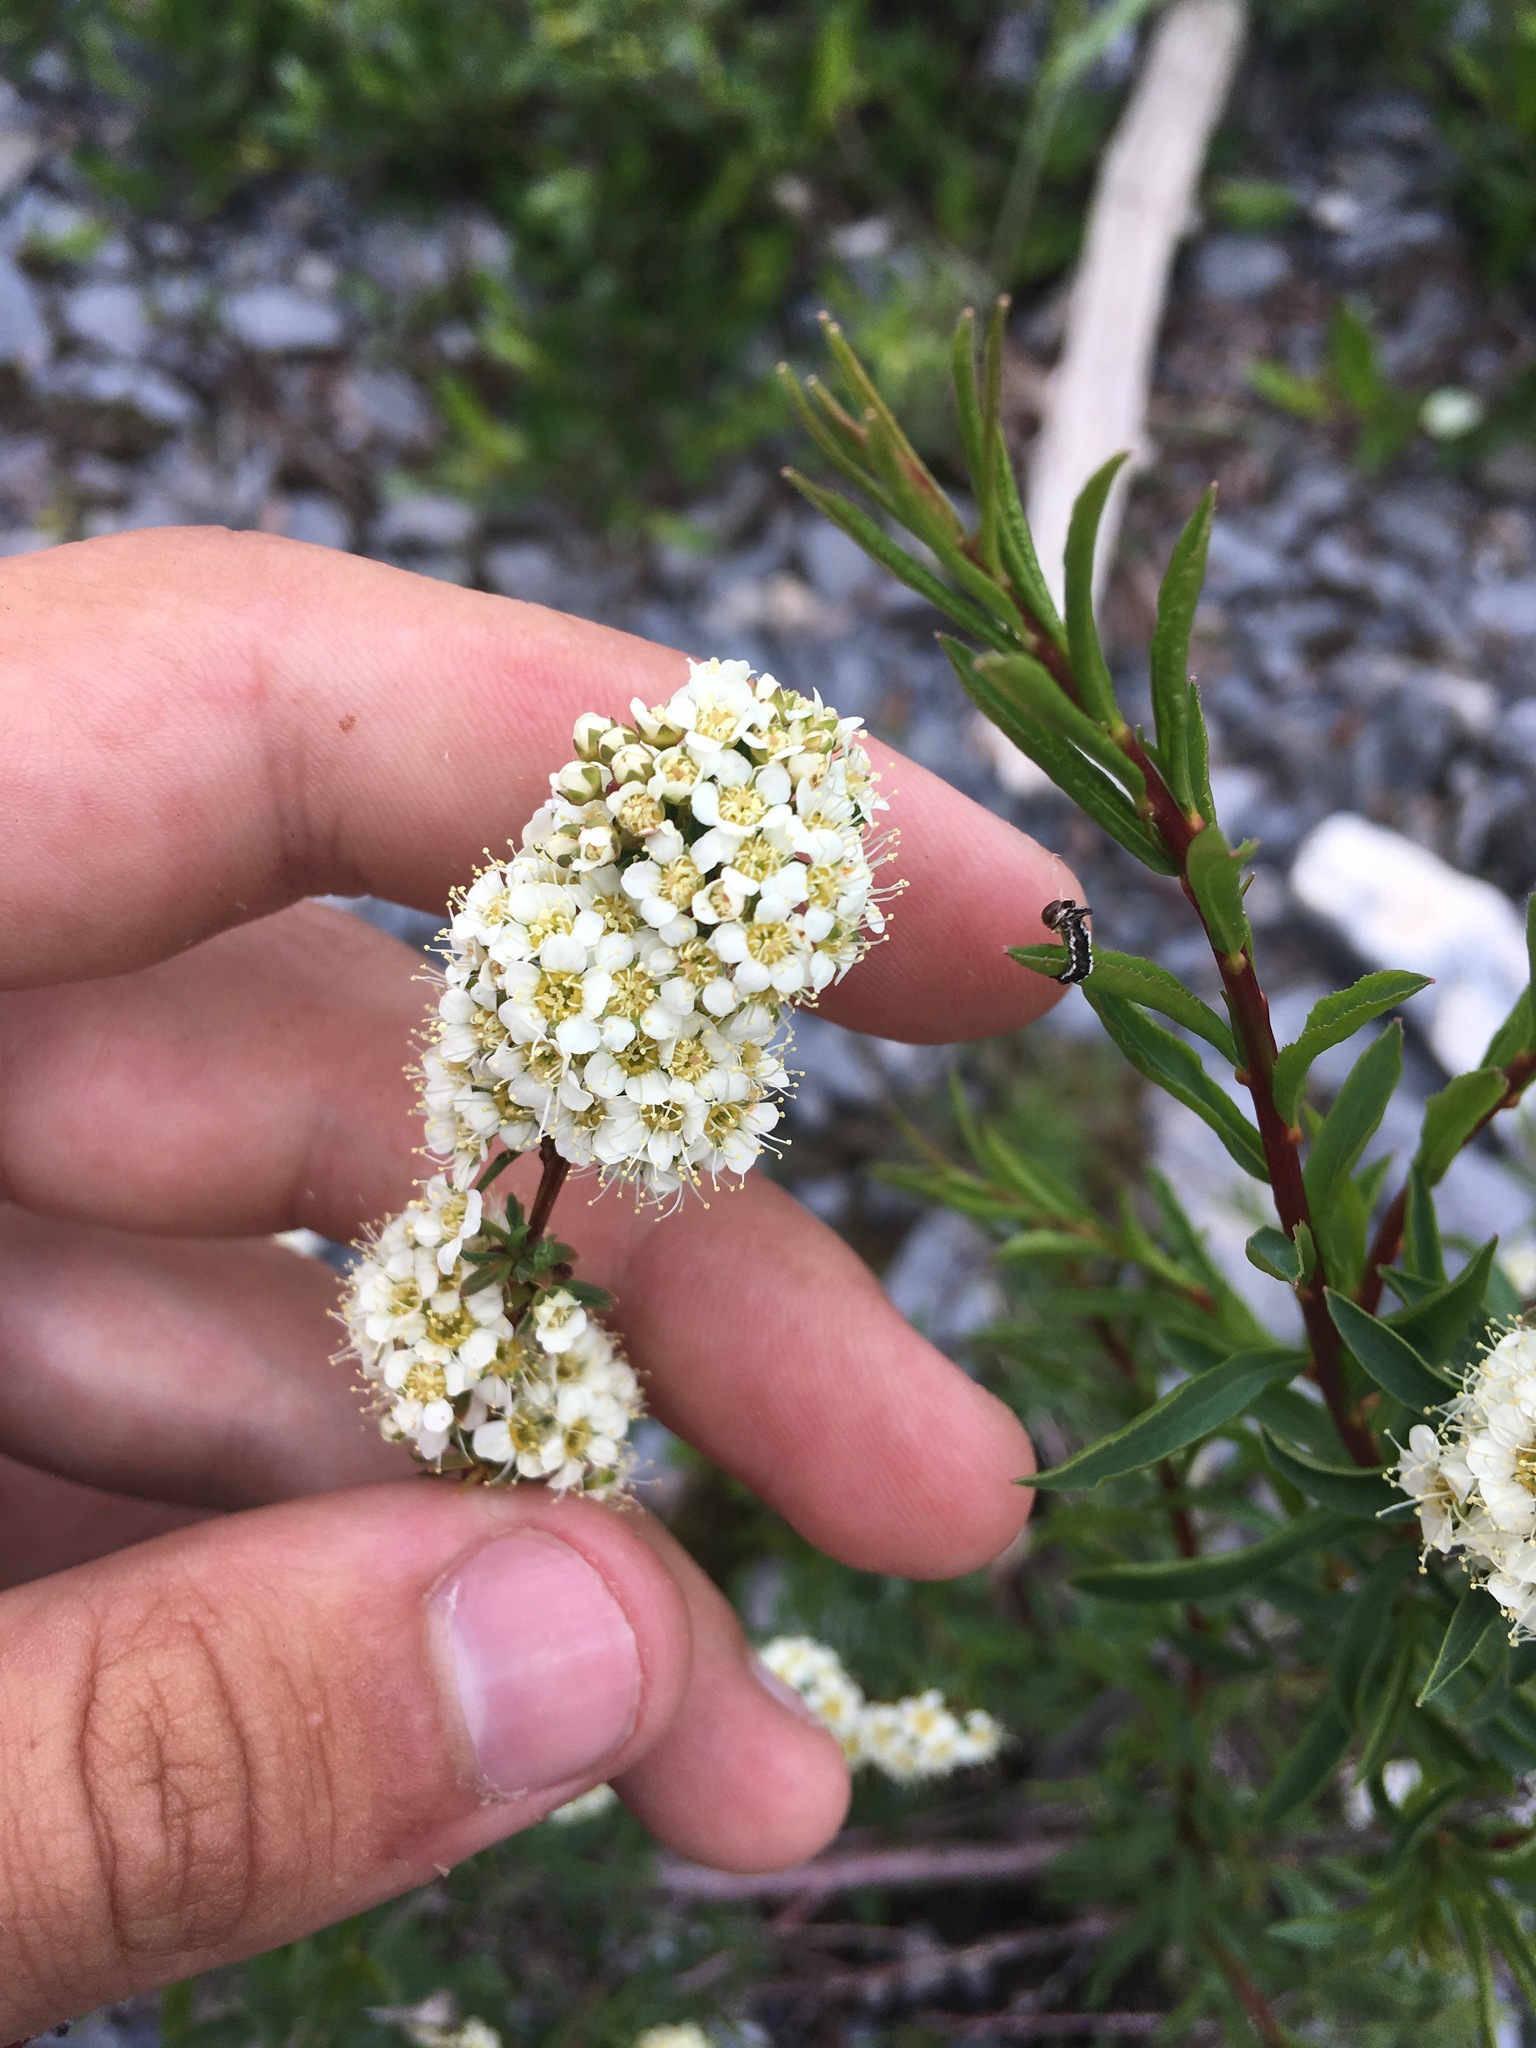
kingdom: Plantae
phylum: Tracheophyta
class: Magnoliopsida
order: Rosales
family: Rosaceae
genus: Spiraea
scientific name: Spiraea alpina
